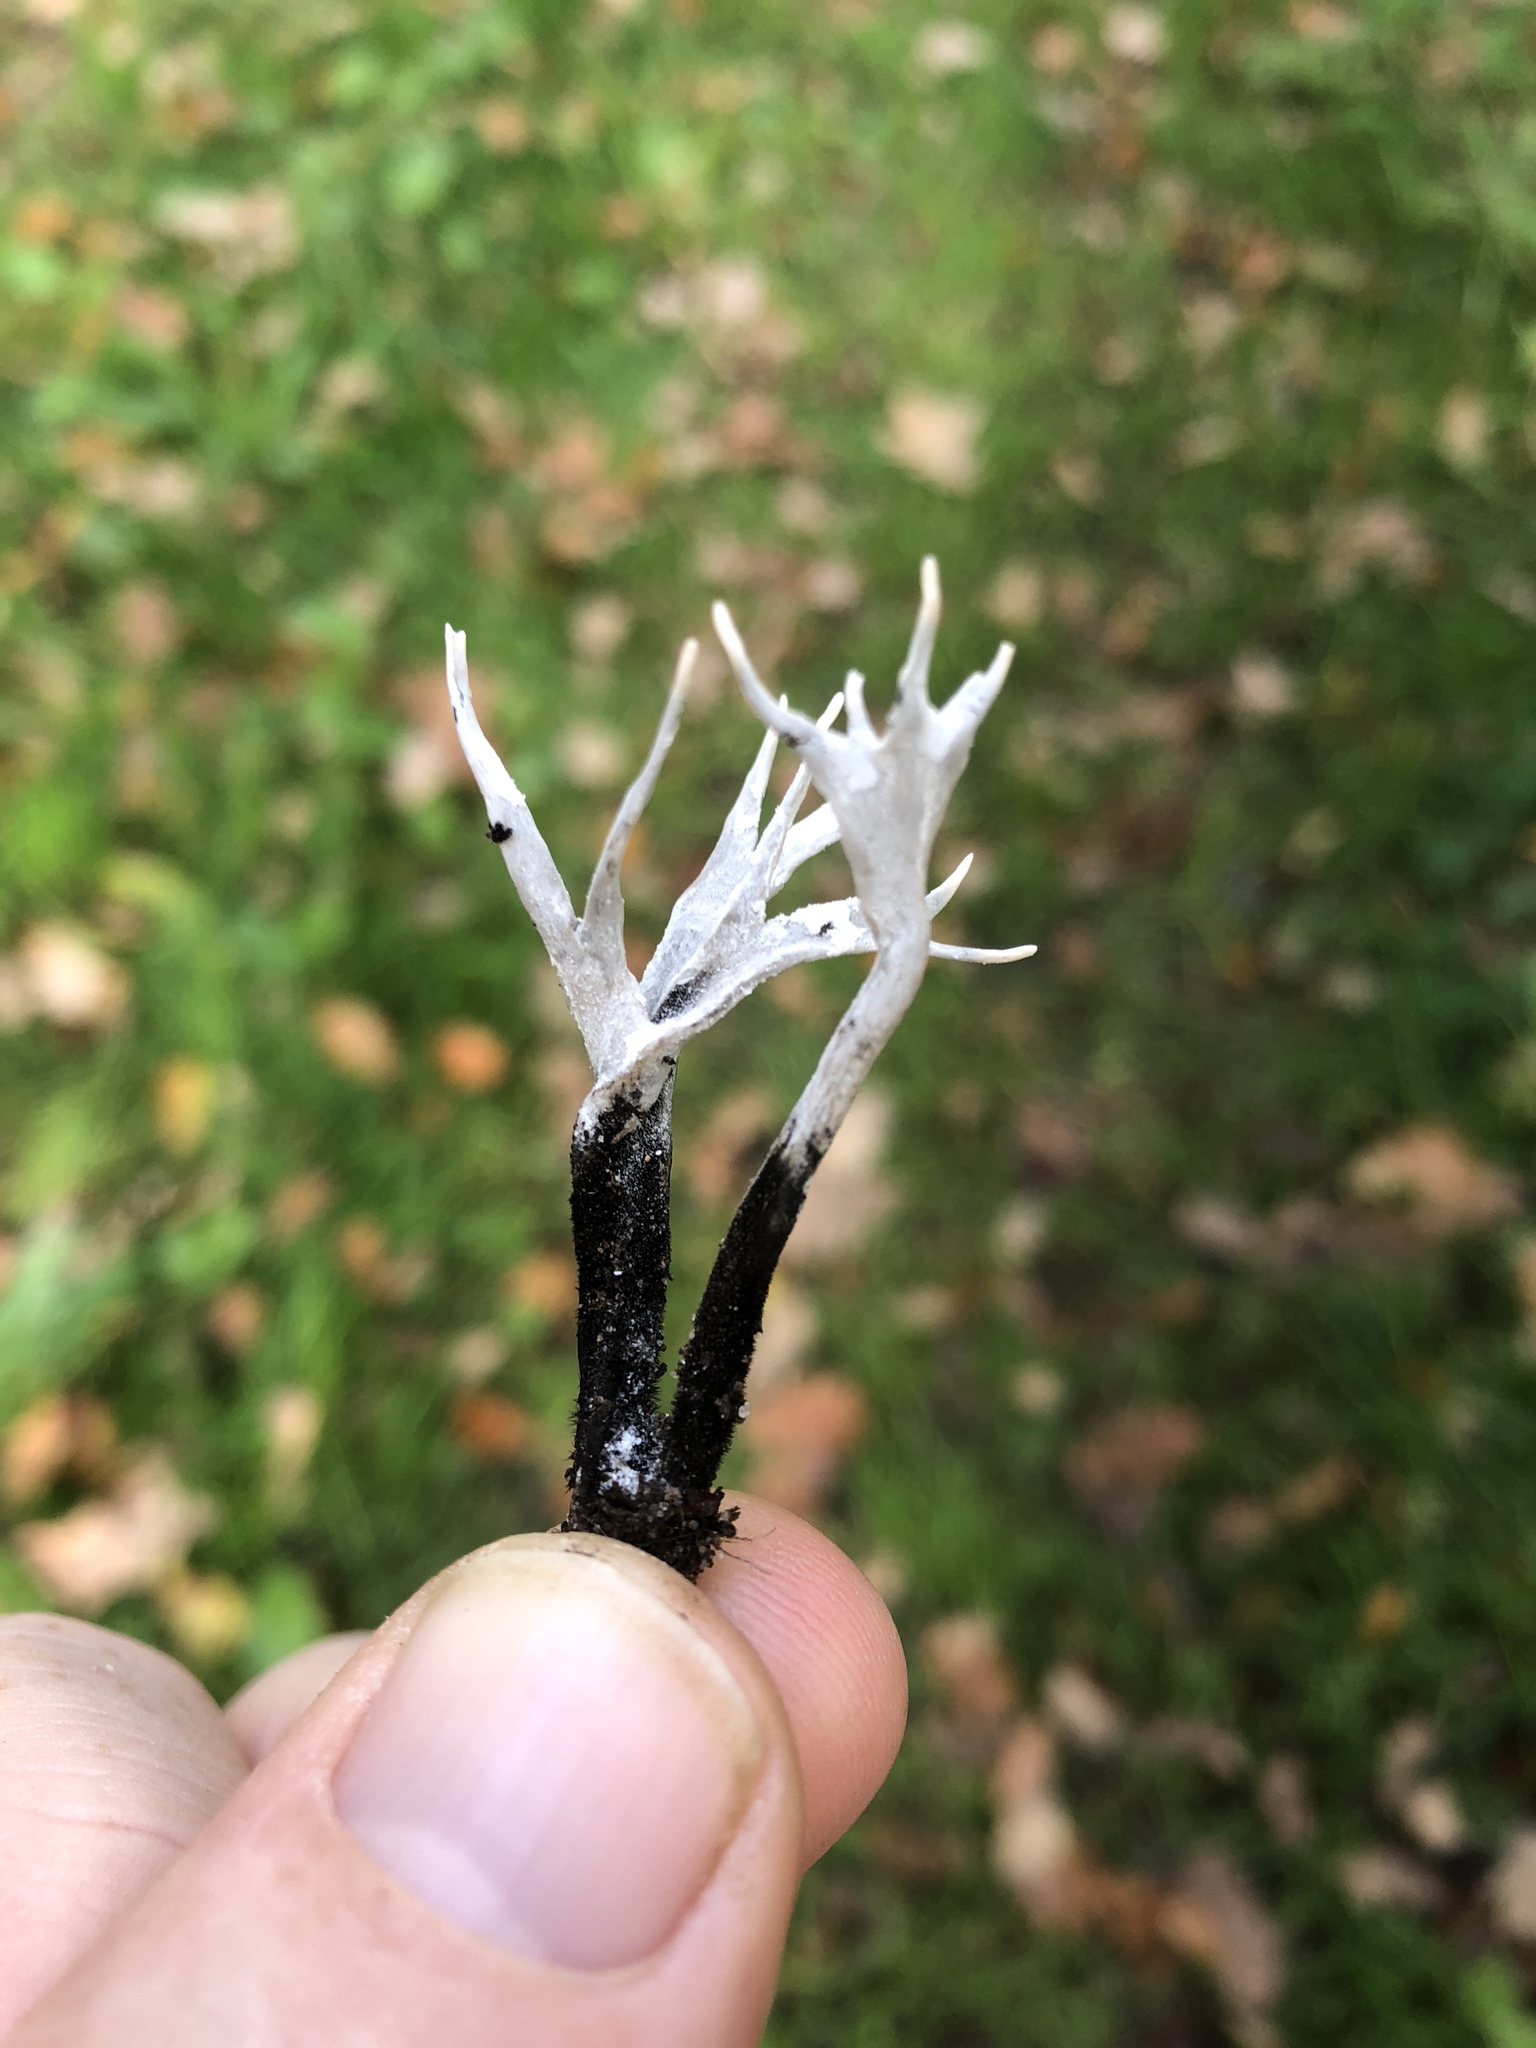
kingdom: Fungi
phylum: Ascomycota
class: Sordariomycetes
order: Xylariales
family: Xylariaceae
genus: Xylaria
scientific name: Xylaria hypoxylon
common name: Candle-snuff fungus
